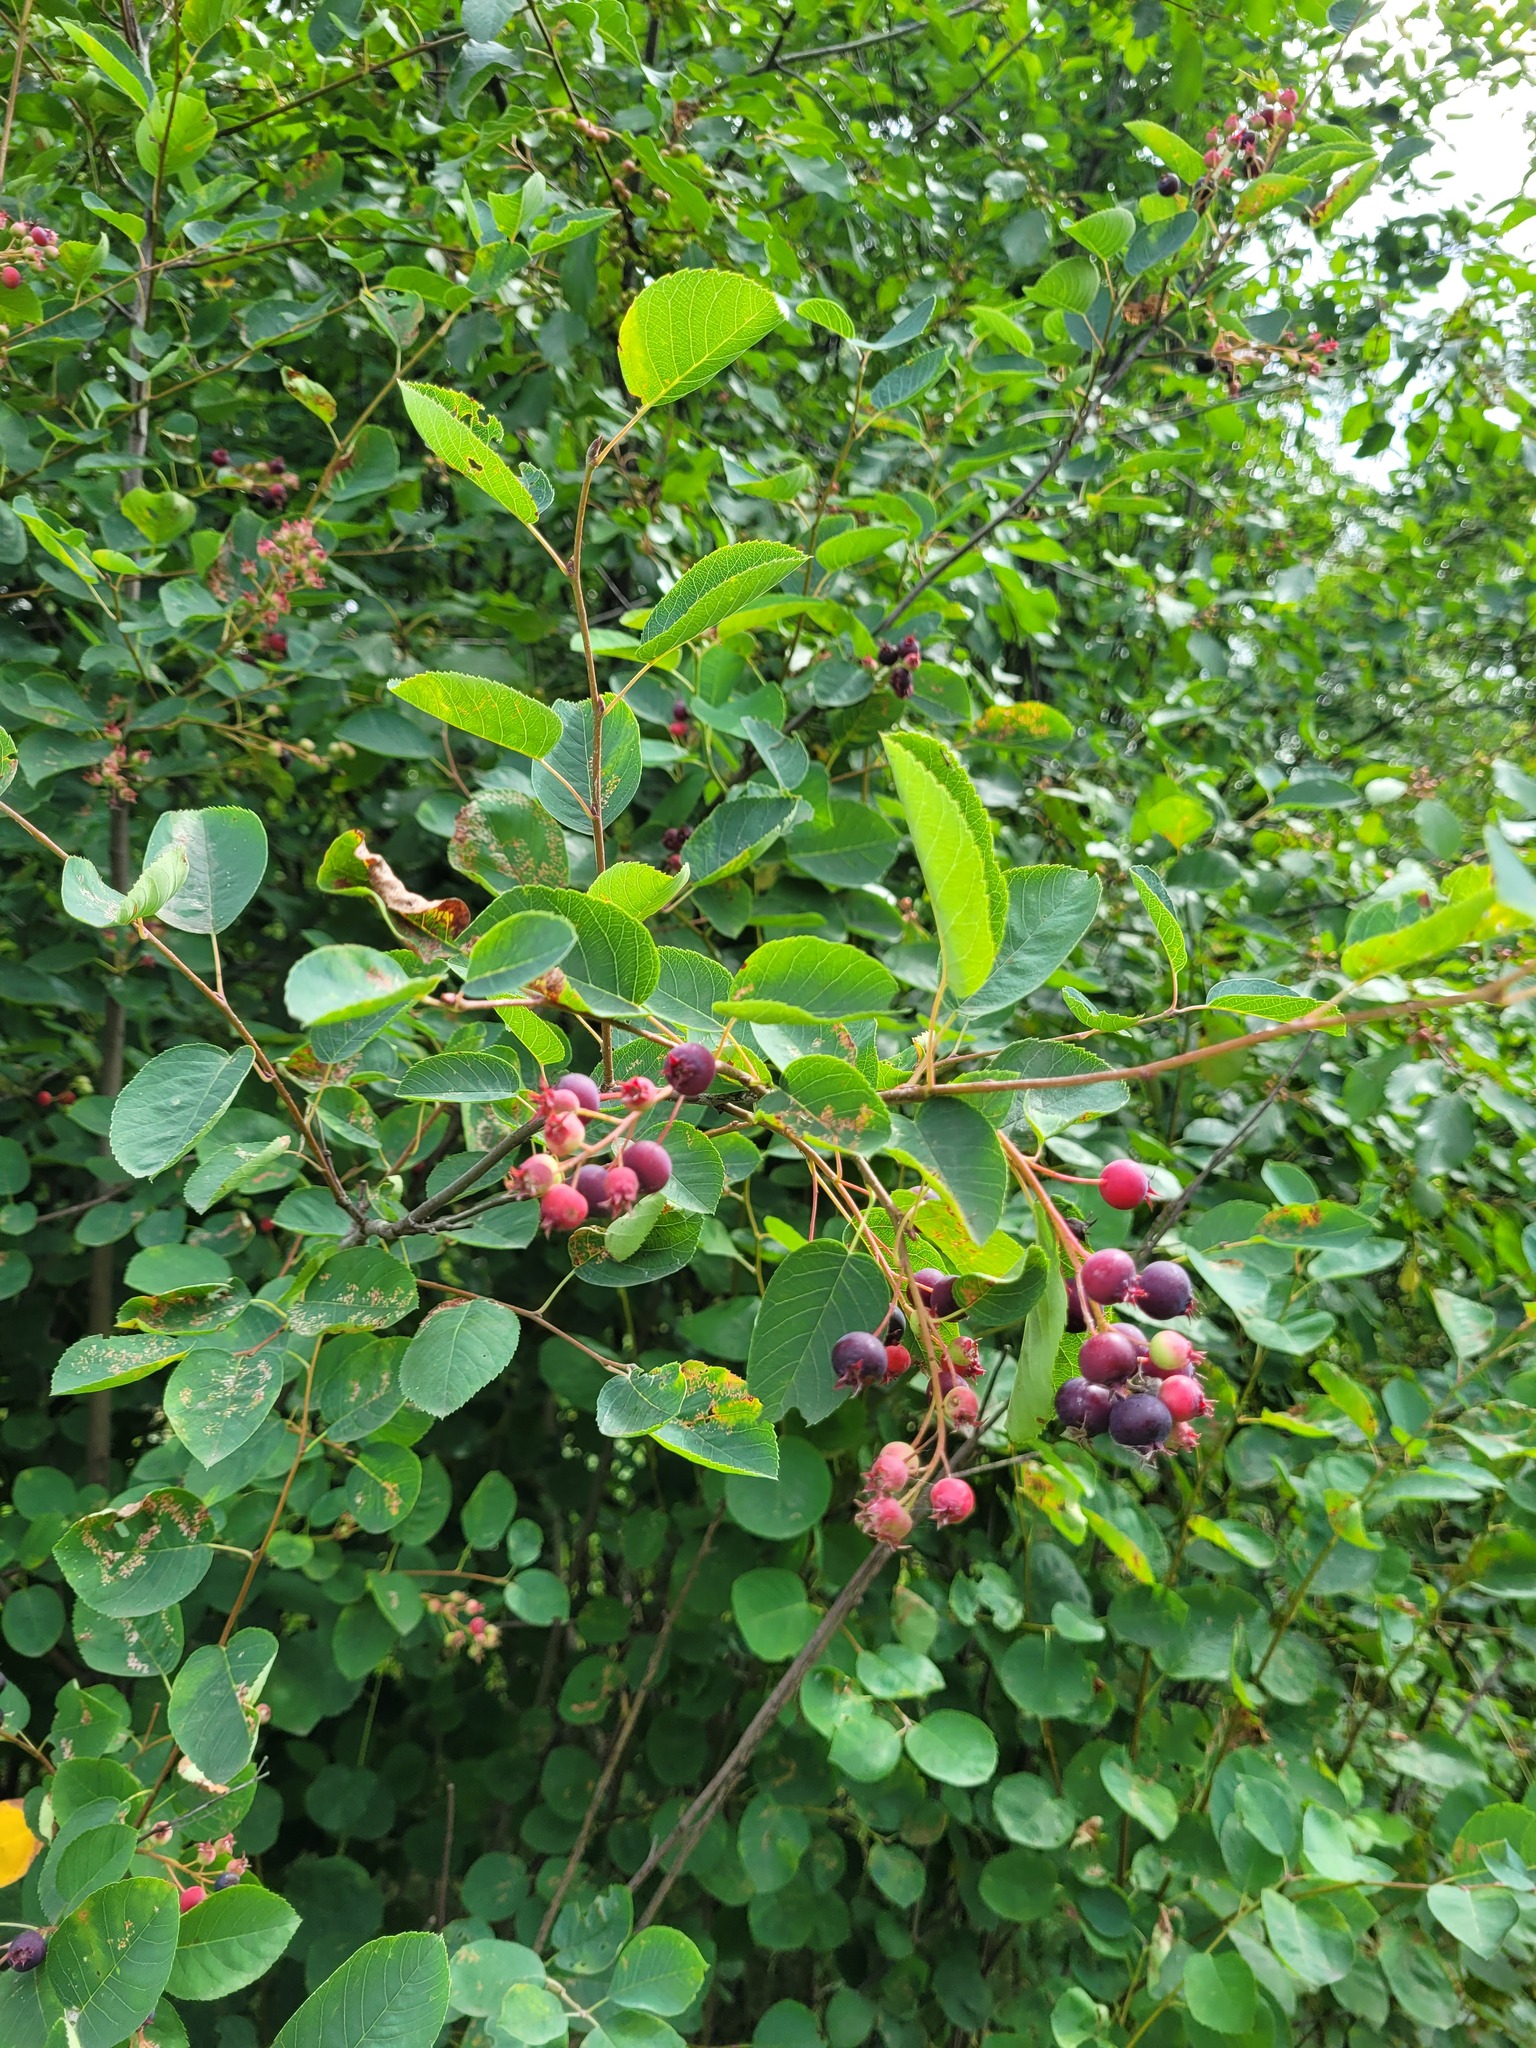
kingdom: Plantae
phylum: Tracheophyta
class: Magnoliopsida
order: Rosales
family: Rosaceae
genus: Amelanchier
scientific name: Amelanchier
